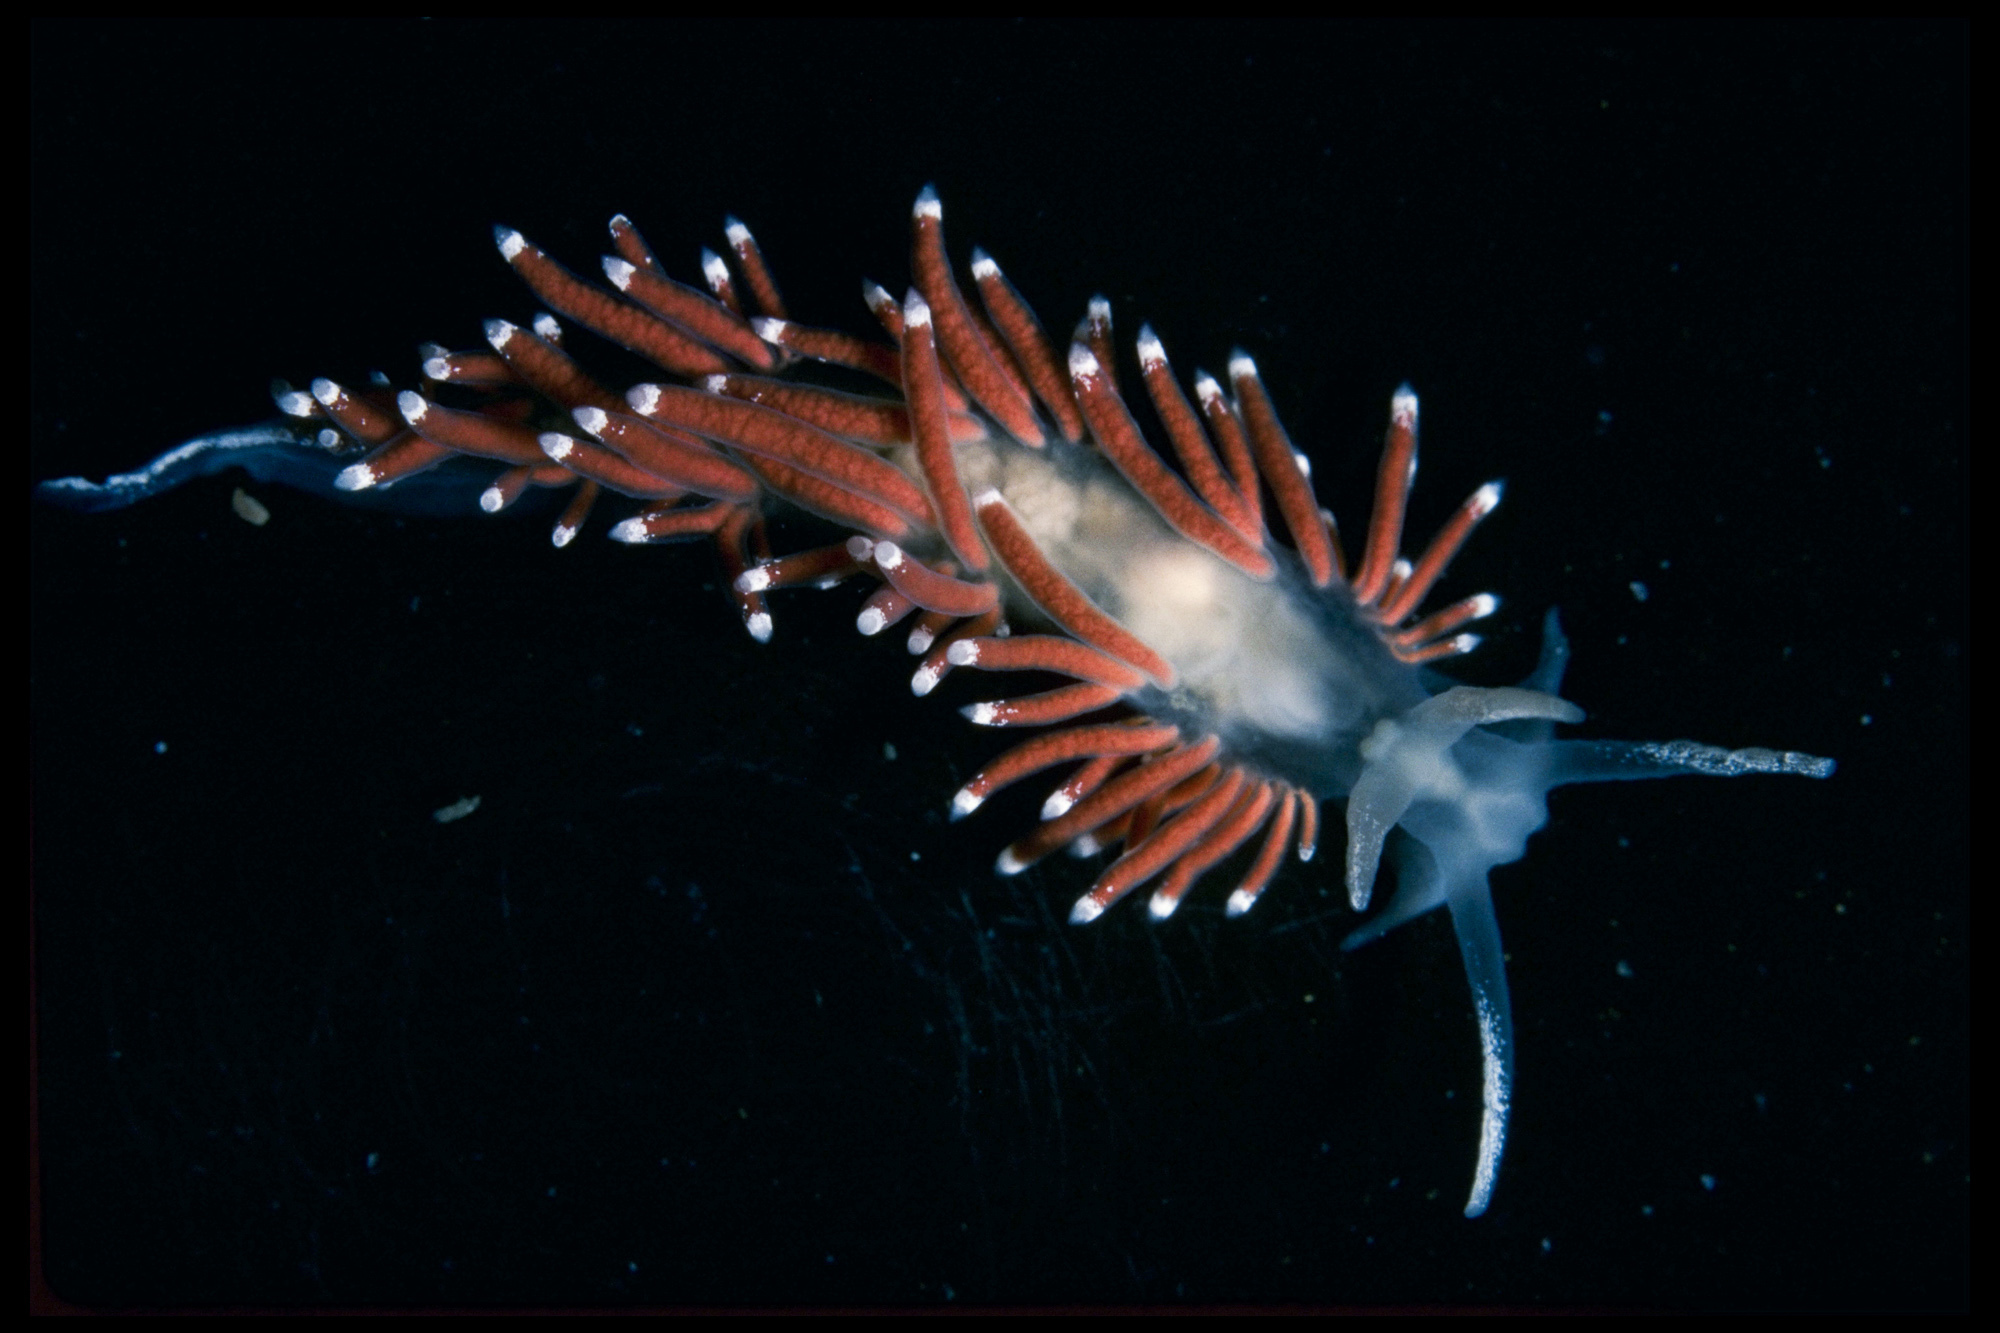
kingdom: Animalia
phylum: Mollusca
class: Gastropoda
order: Nudibranchia
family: Coryphellidae
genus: Coryphella
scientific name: Coryphella gracilis
